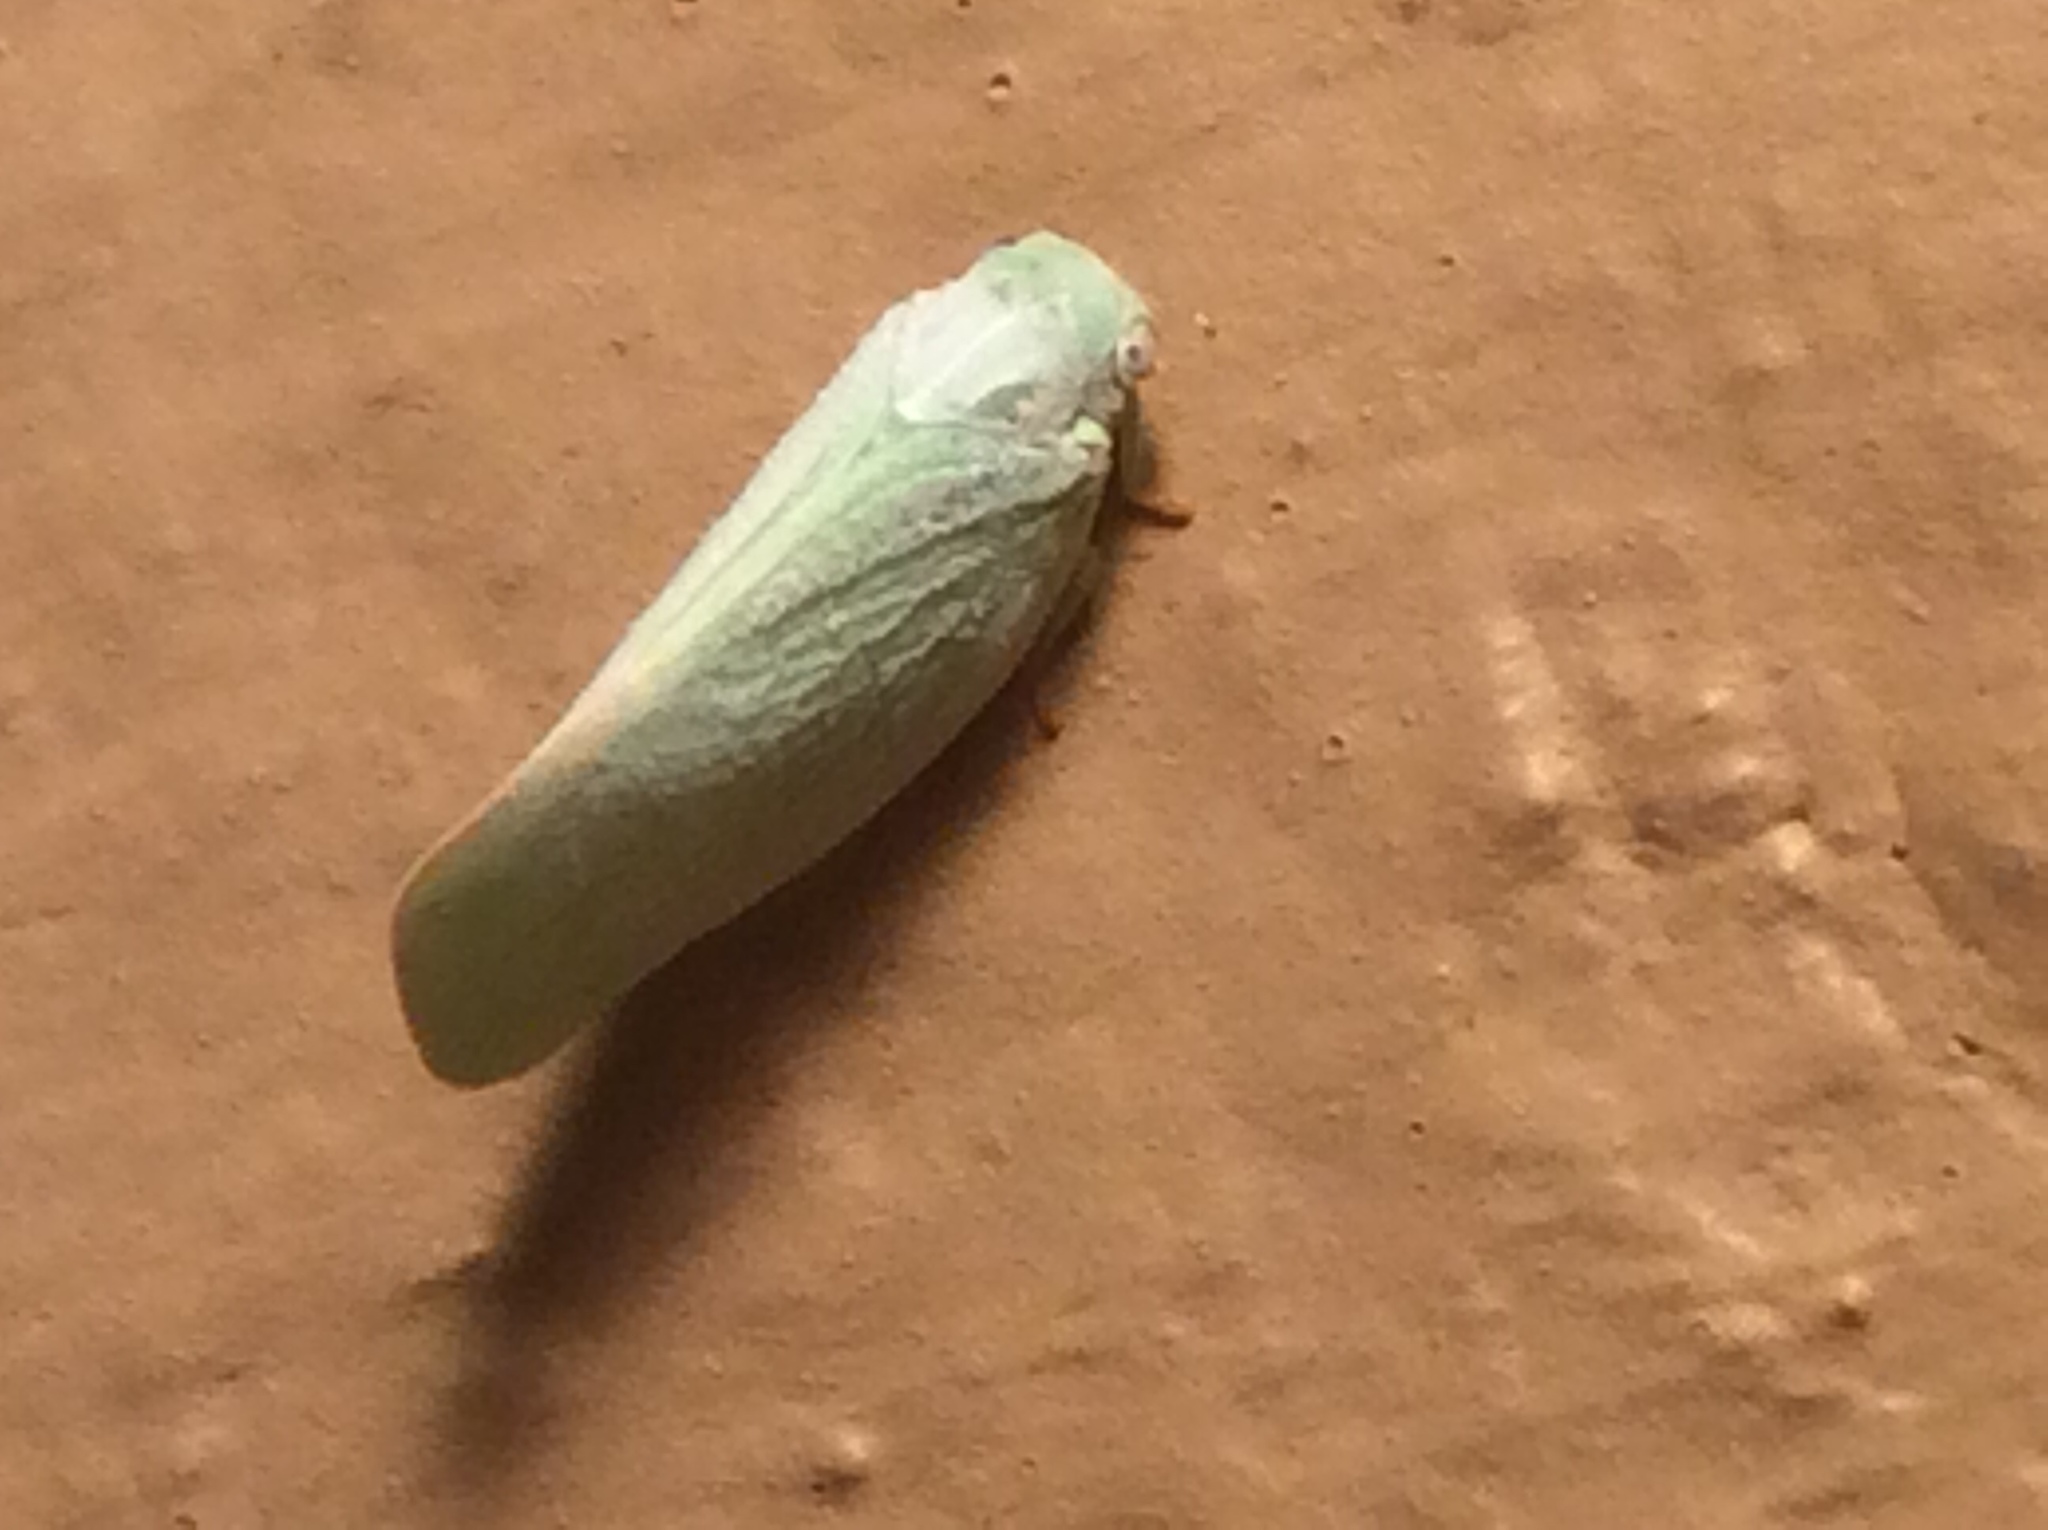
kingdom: Animalia
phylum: Arthropoda
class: Insecta
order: Hemiptera
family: Flatidae
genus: Flatormenis
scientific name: Flatormenis proxima
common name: Northern flatid planthopper
